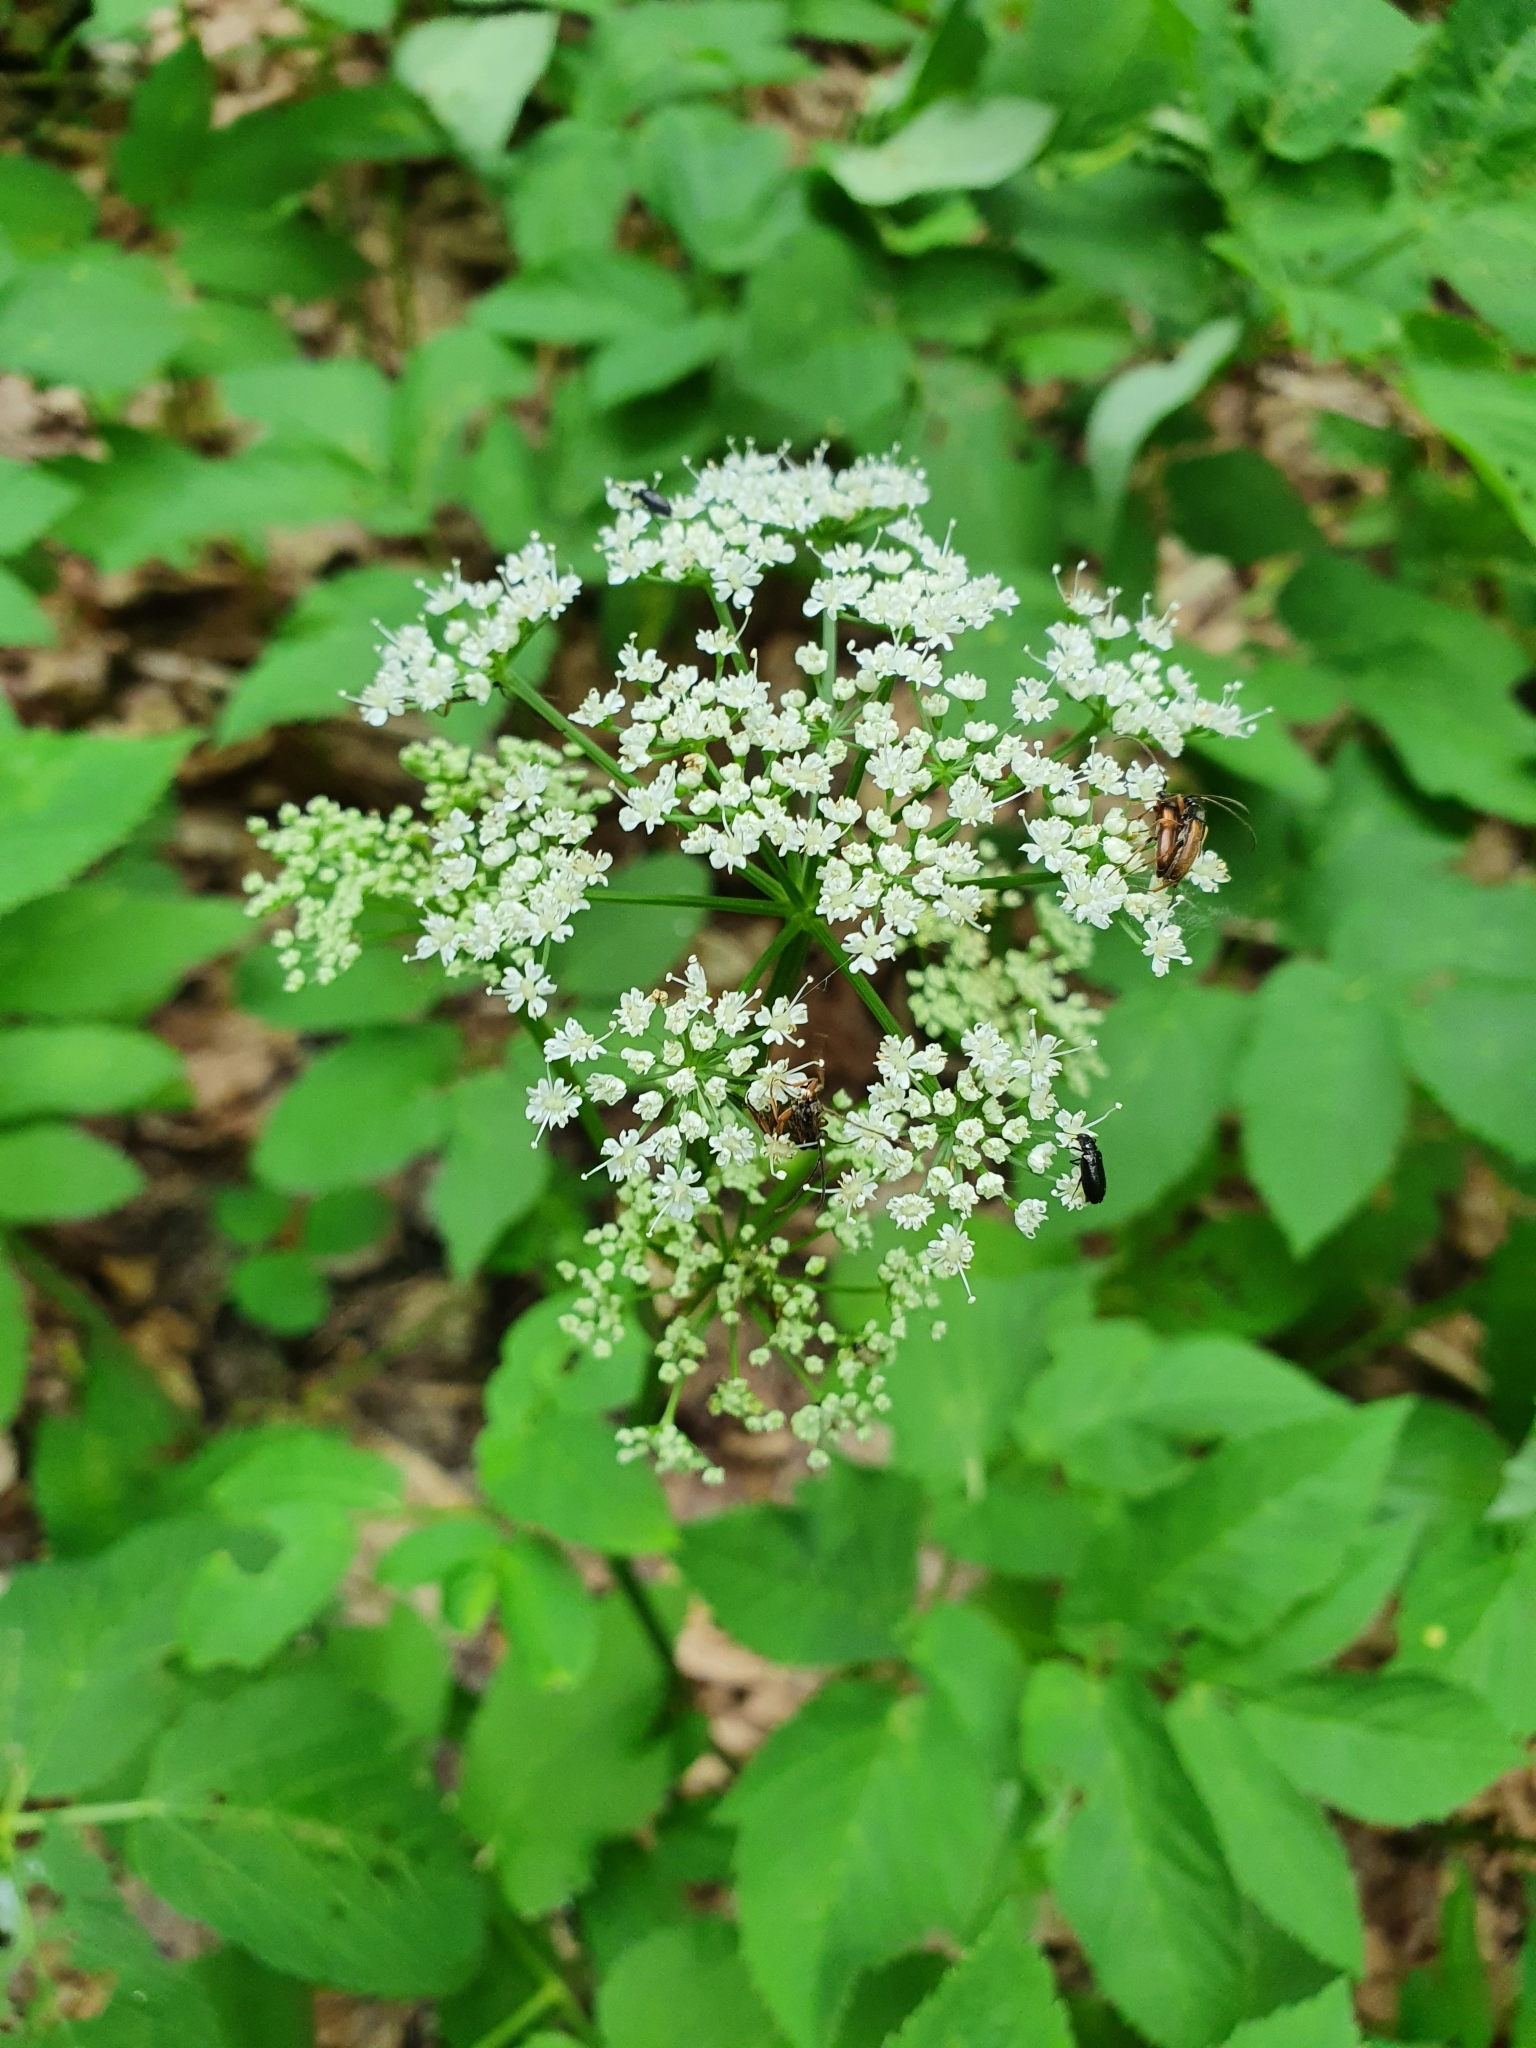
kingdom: Plantae
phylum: Tracheophyta
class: Magnoliopsida
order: Apiales
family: Apiaceae
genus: Aegopodium
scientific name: Aegopodium podagraria
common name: Ground-elder
